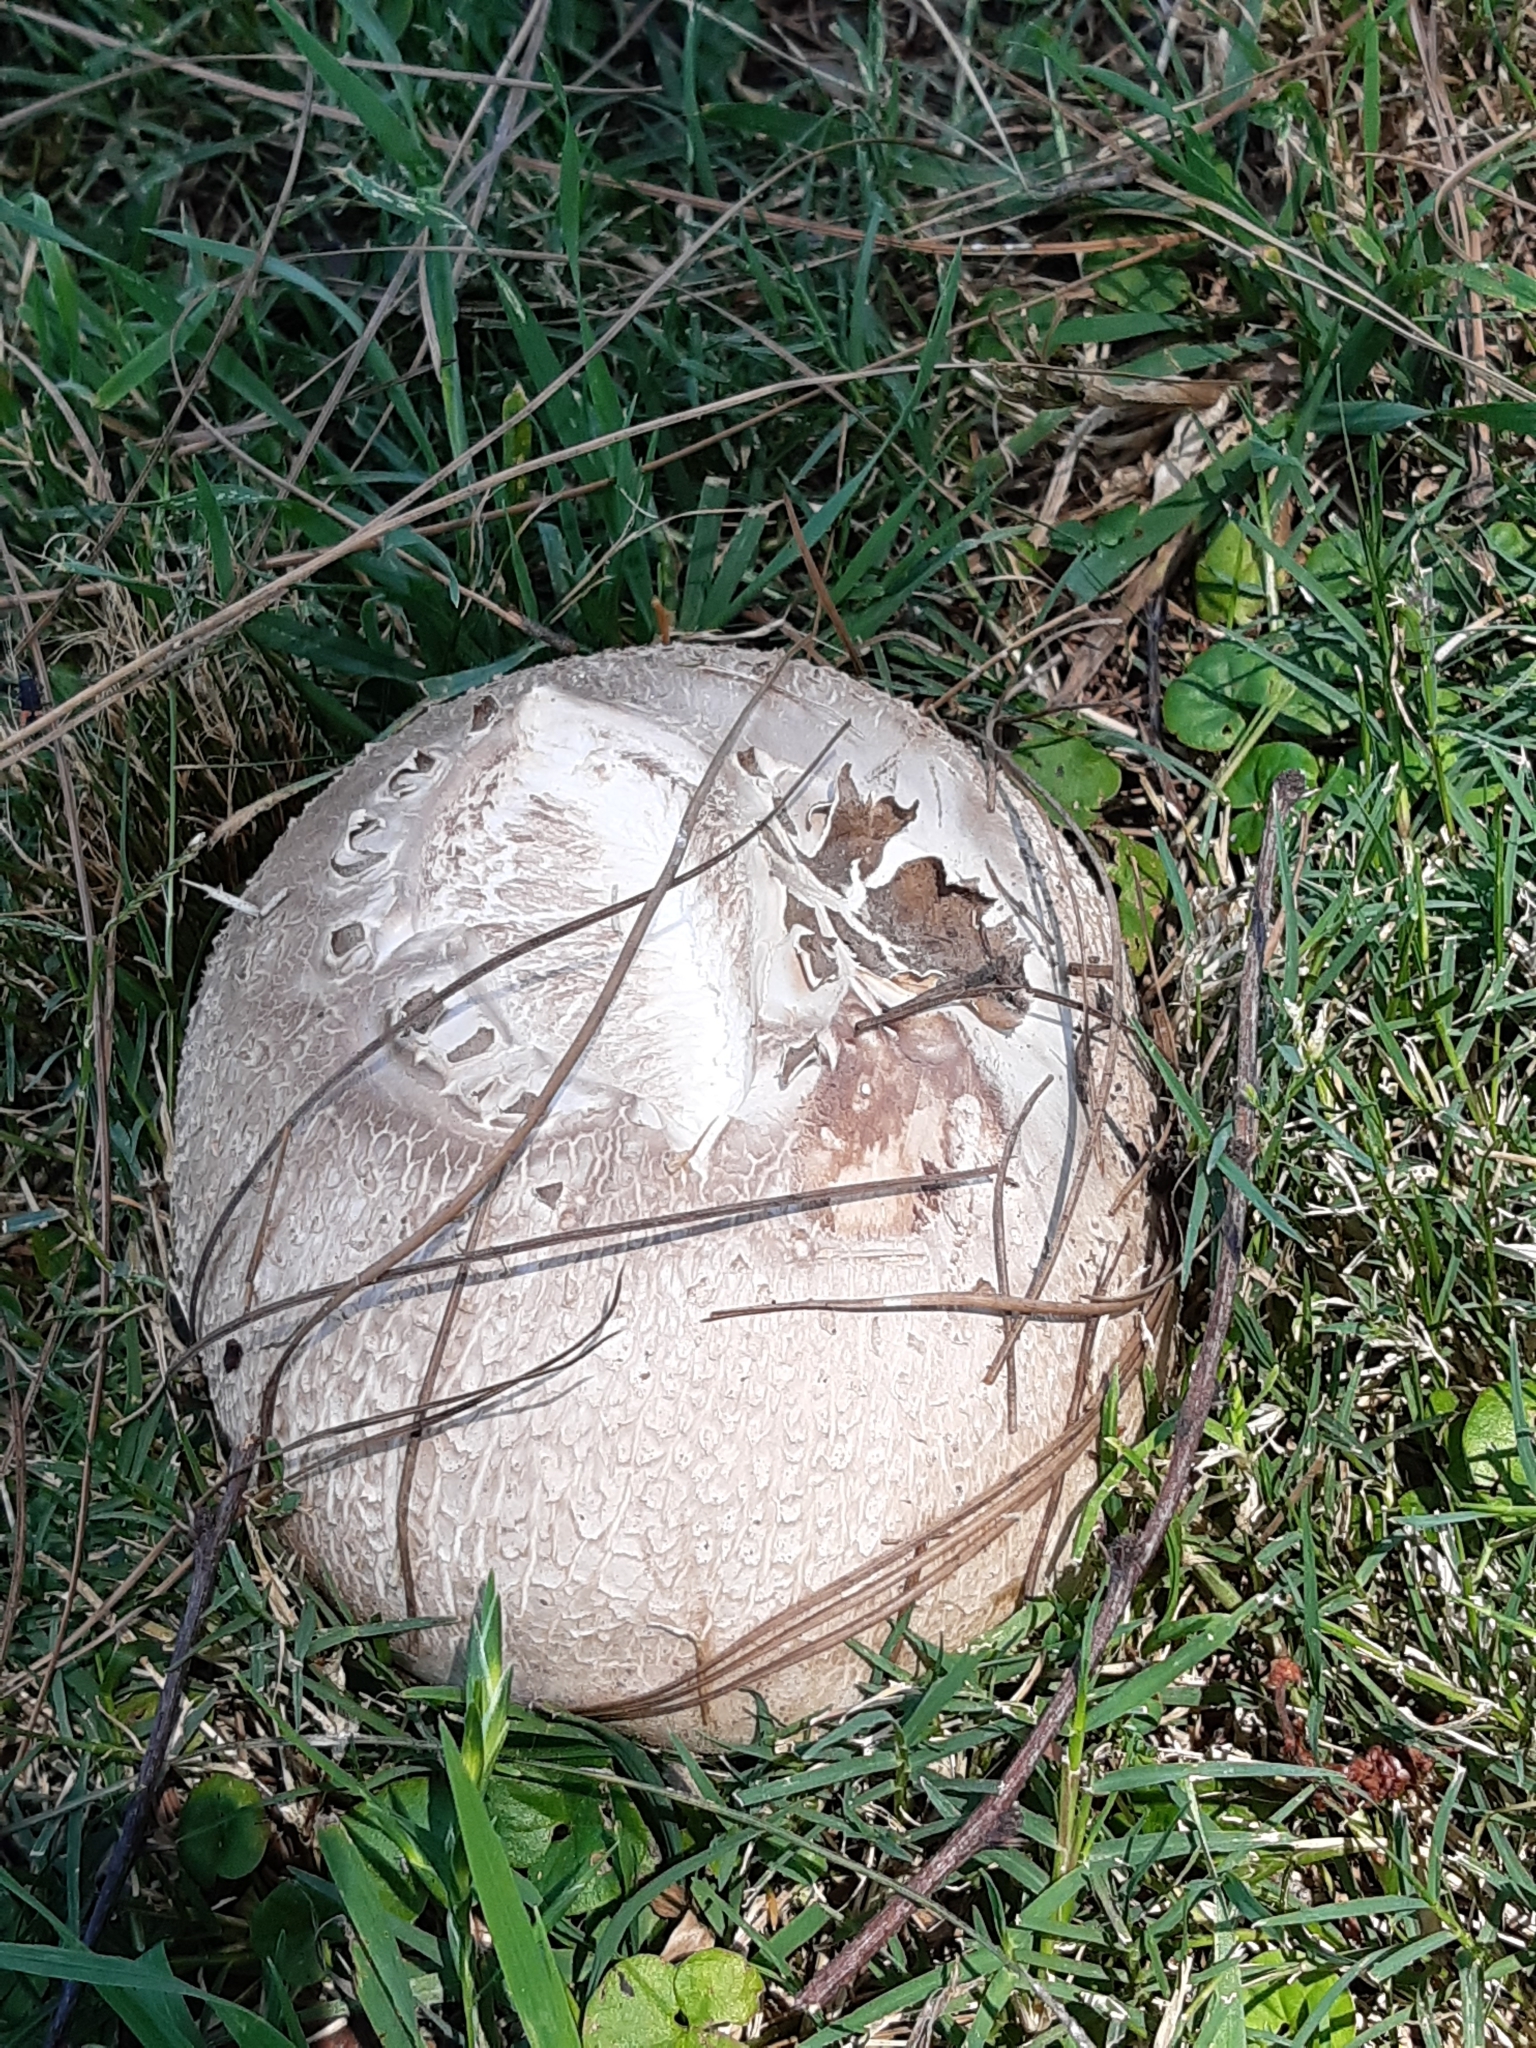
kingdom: Fungi
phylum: Basidiomycota
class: Agaricomycetes
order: Agaricales
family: Lycoperdaceae
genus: Calvatia
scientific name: Calvatia cyathiformis
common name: Purple-spored puffball
